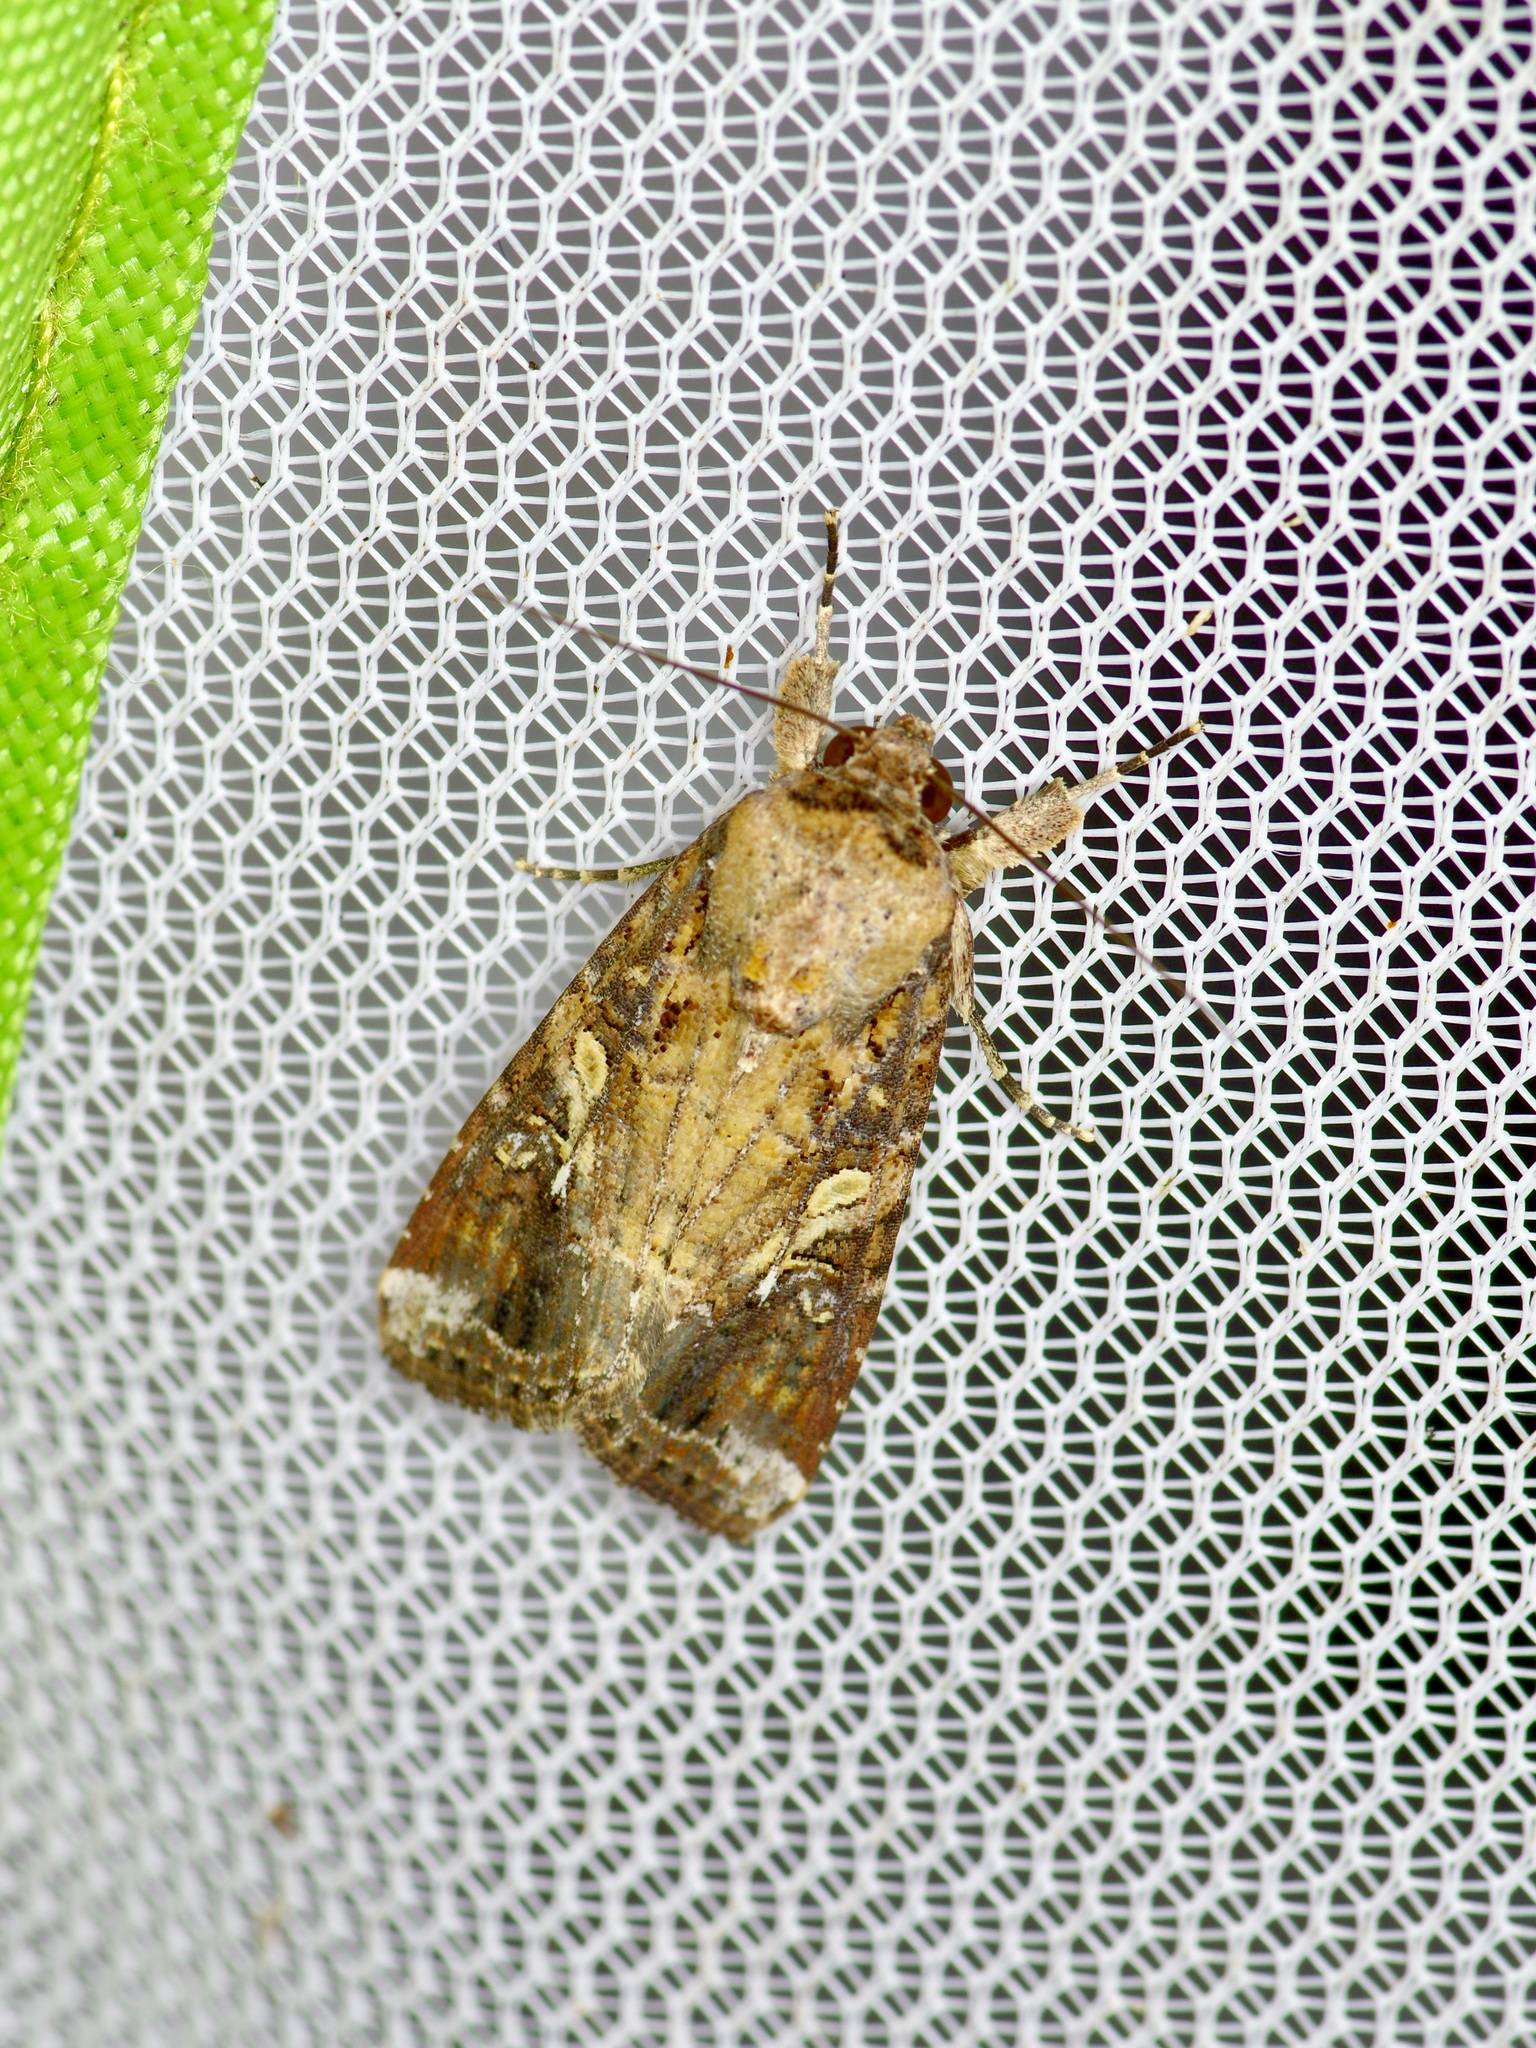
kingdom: Animalia
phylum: Arthropoda
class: Insecta
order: Lepidoptera
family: Noctuidae
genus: Spodoptera
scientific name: Spodoptera frugiperda
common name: Fall armyworm
